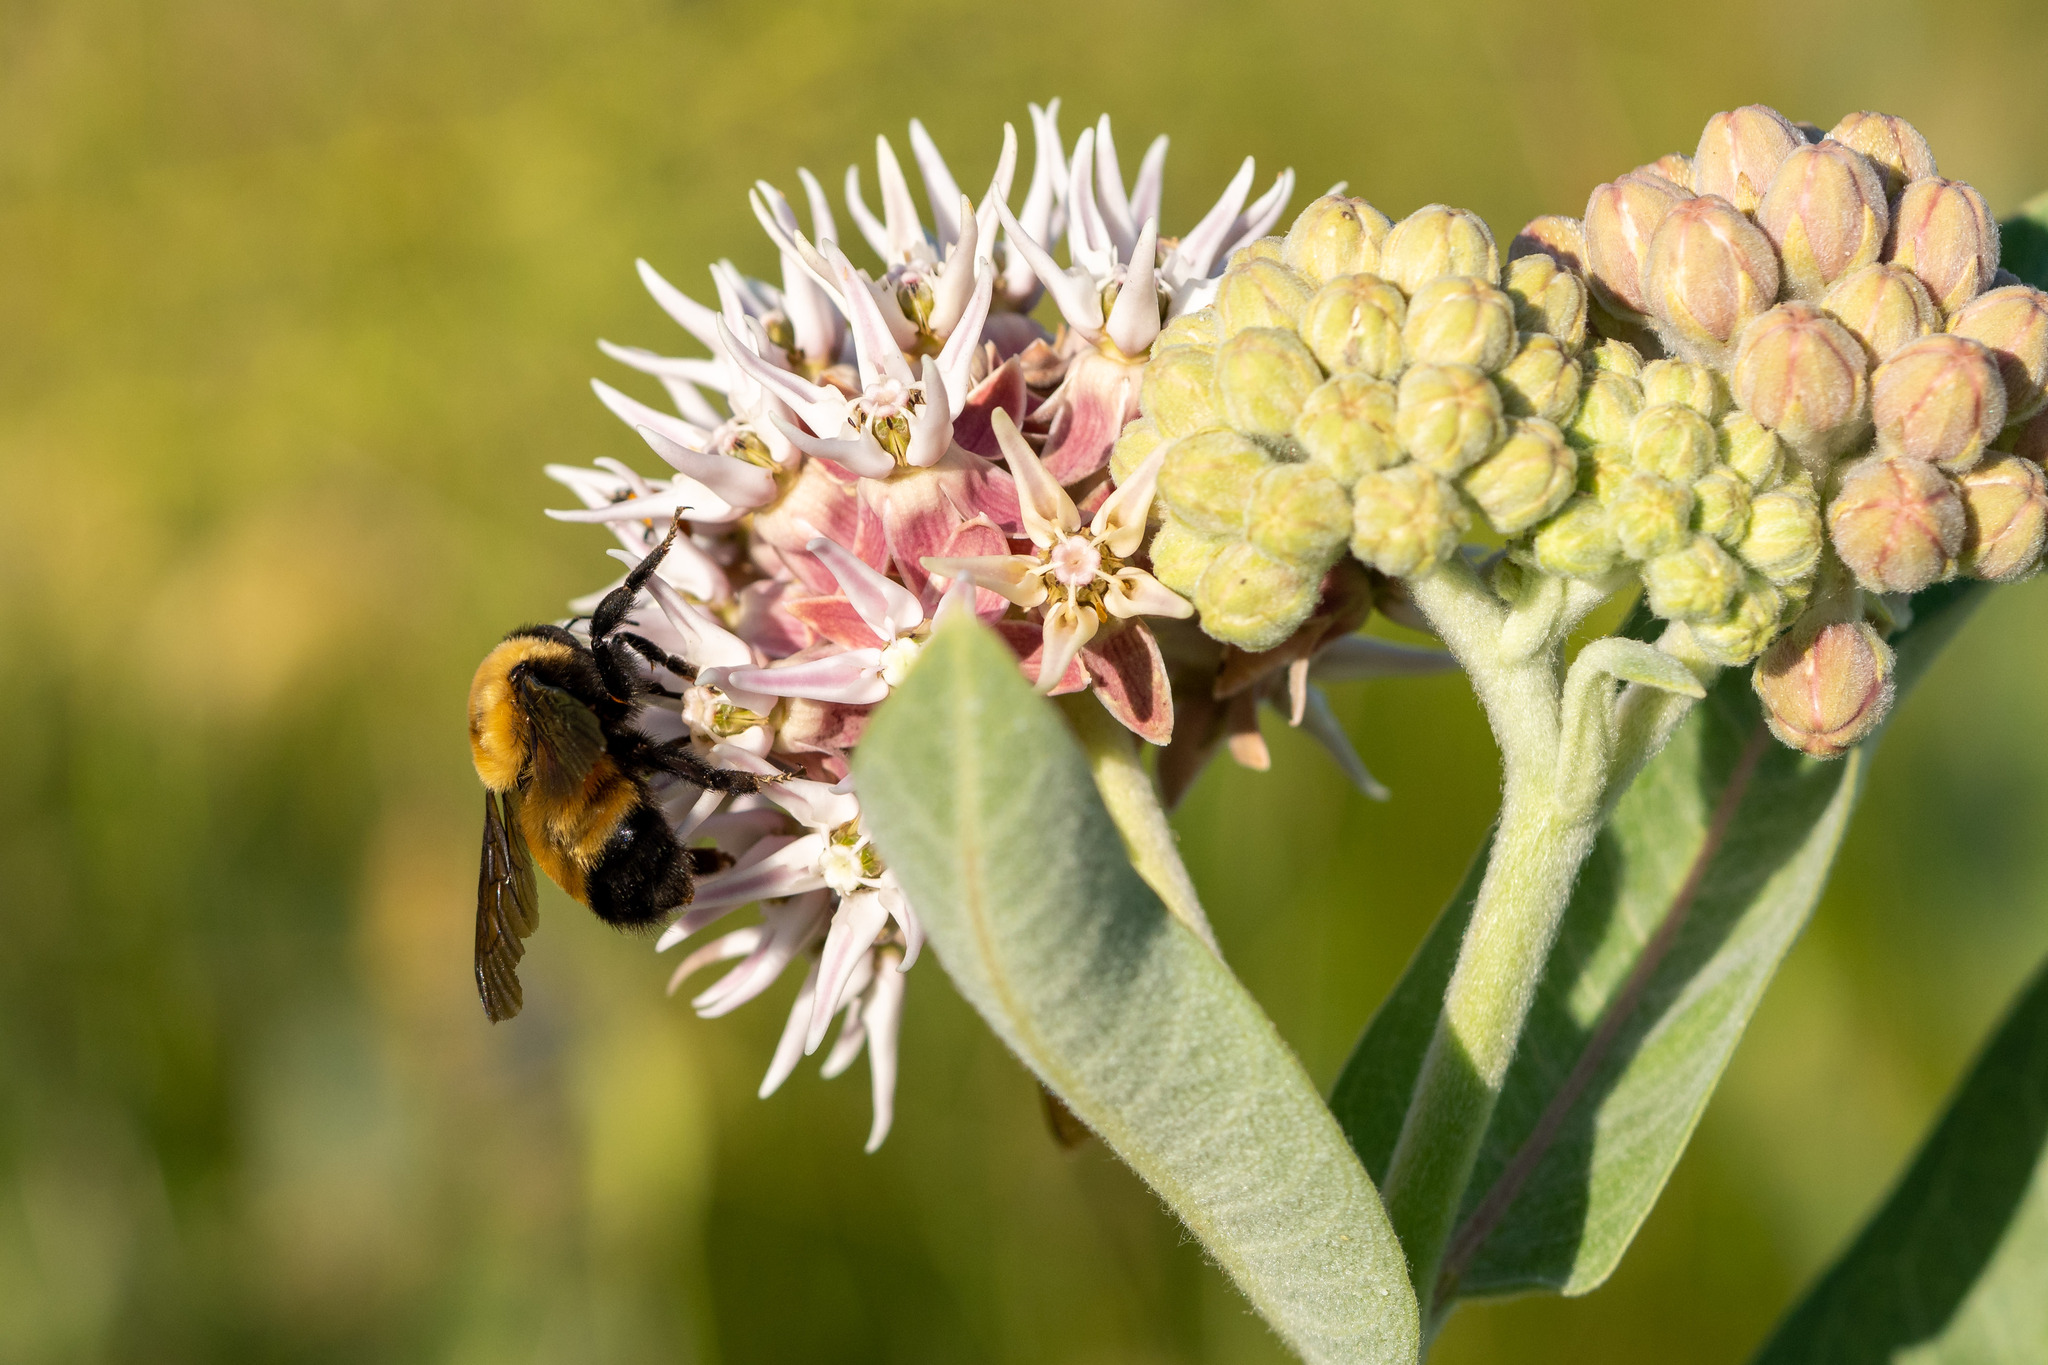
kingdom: Animalia
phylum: Arthropoda
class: Insecta
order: Hymenoptera
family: Apidae
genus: Bombus
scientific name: Bombus nevadensis
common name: Nevada bumble bee
